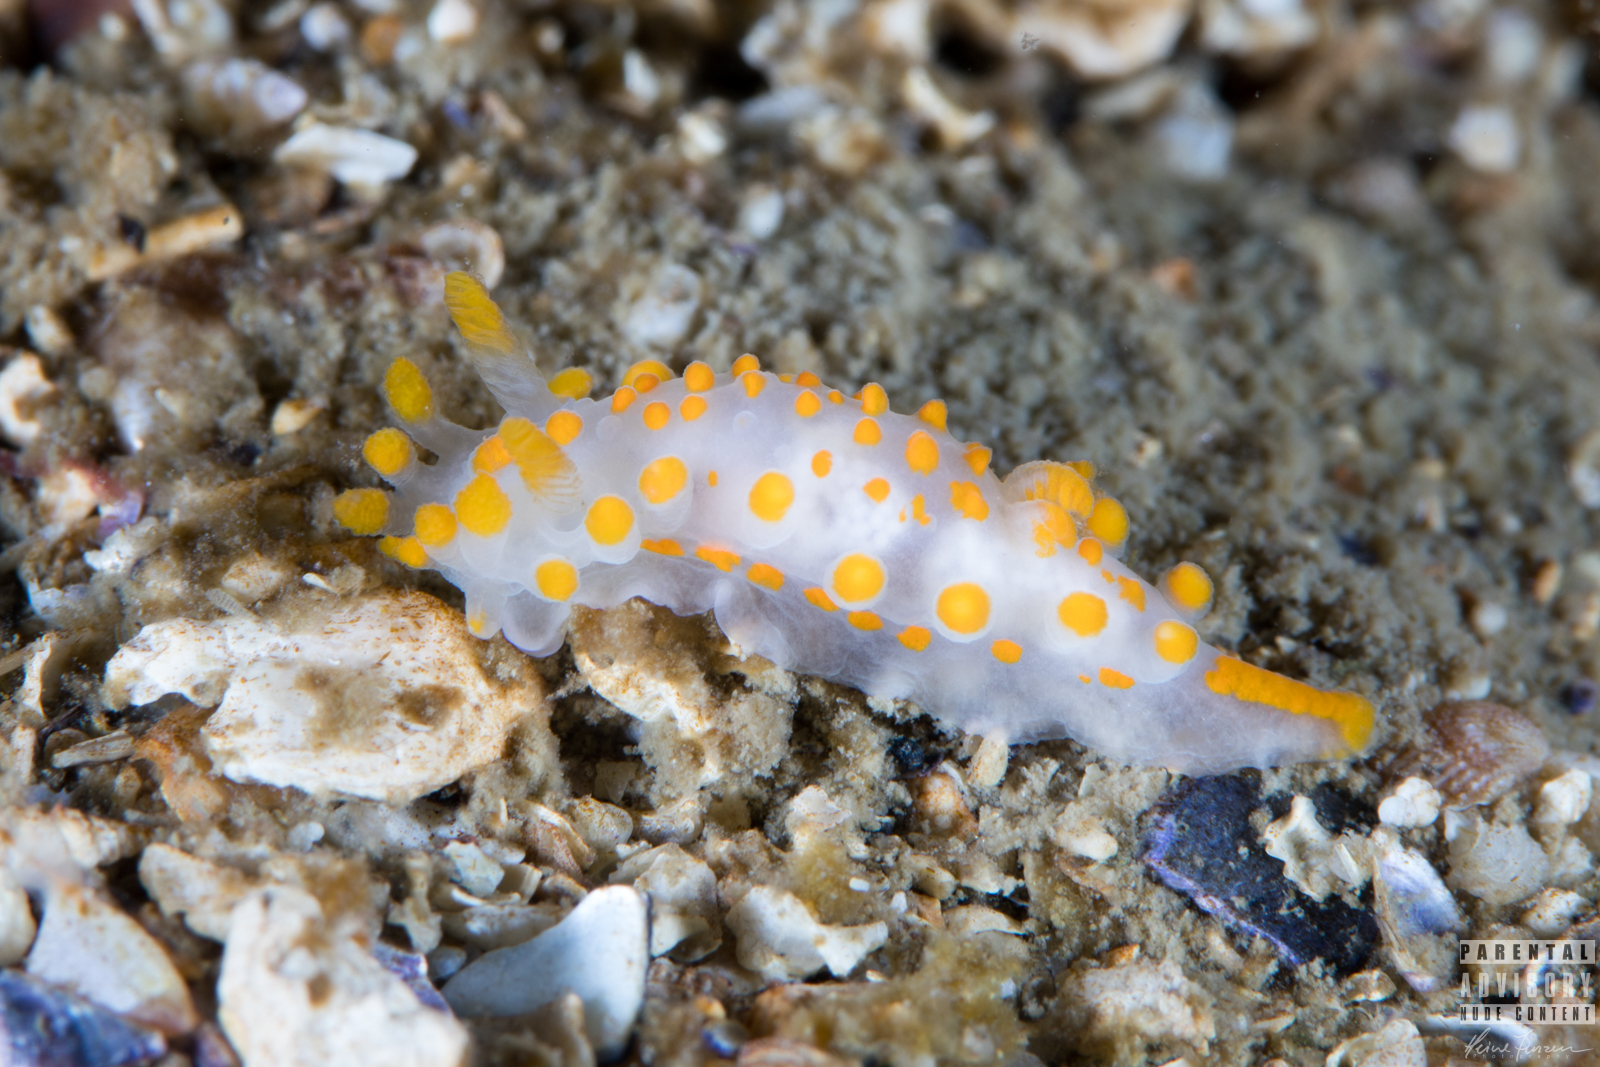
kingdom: Animalia
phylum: Mollusca
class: Gastropoda
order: Nudibranchia
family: Polyceridae
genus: Limacia
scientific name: Limacia clavigera
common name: Orange-clubbed sea slug
